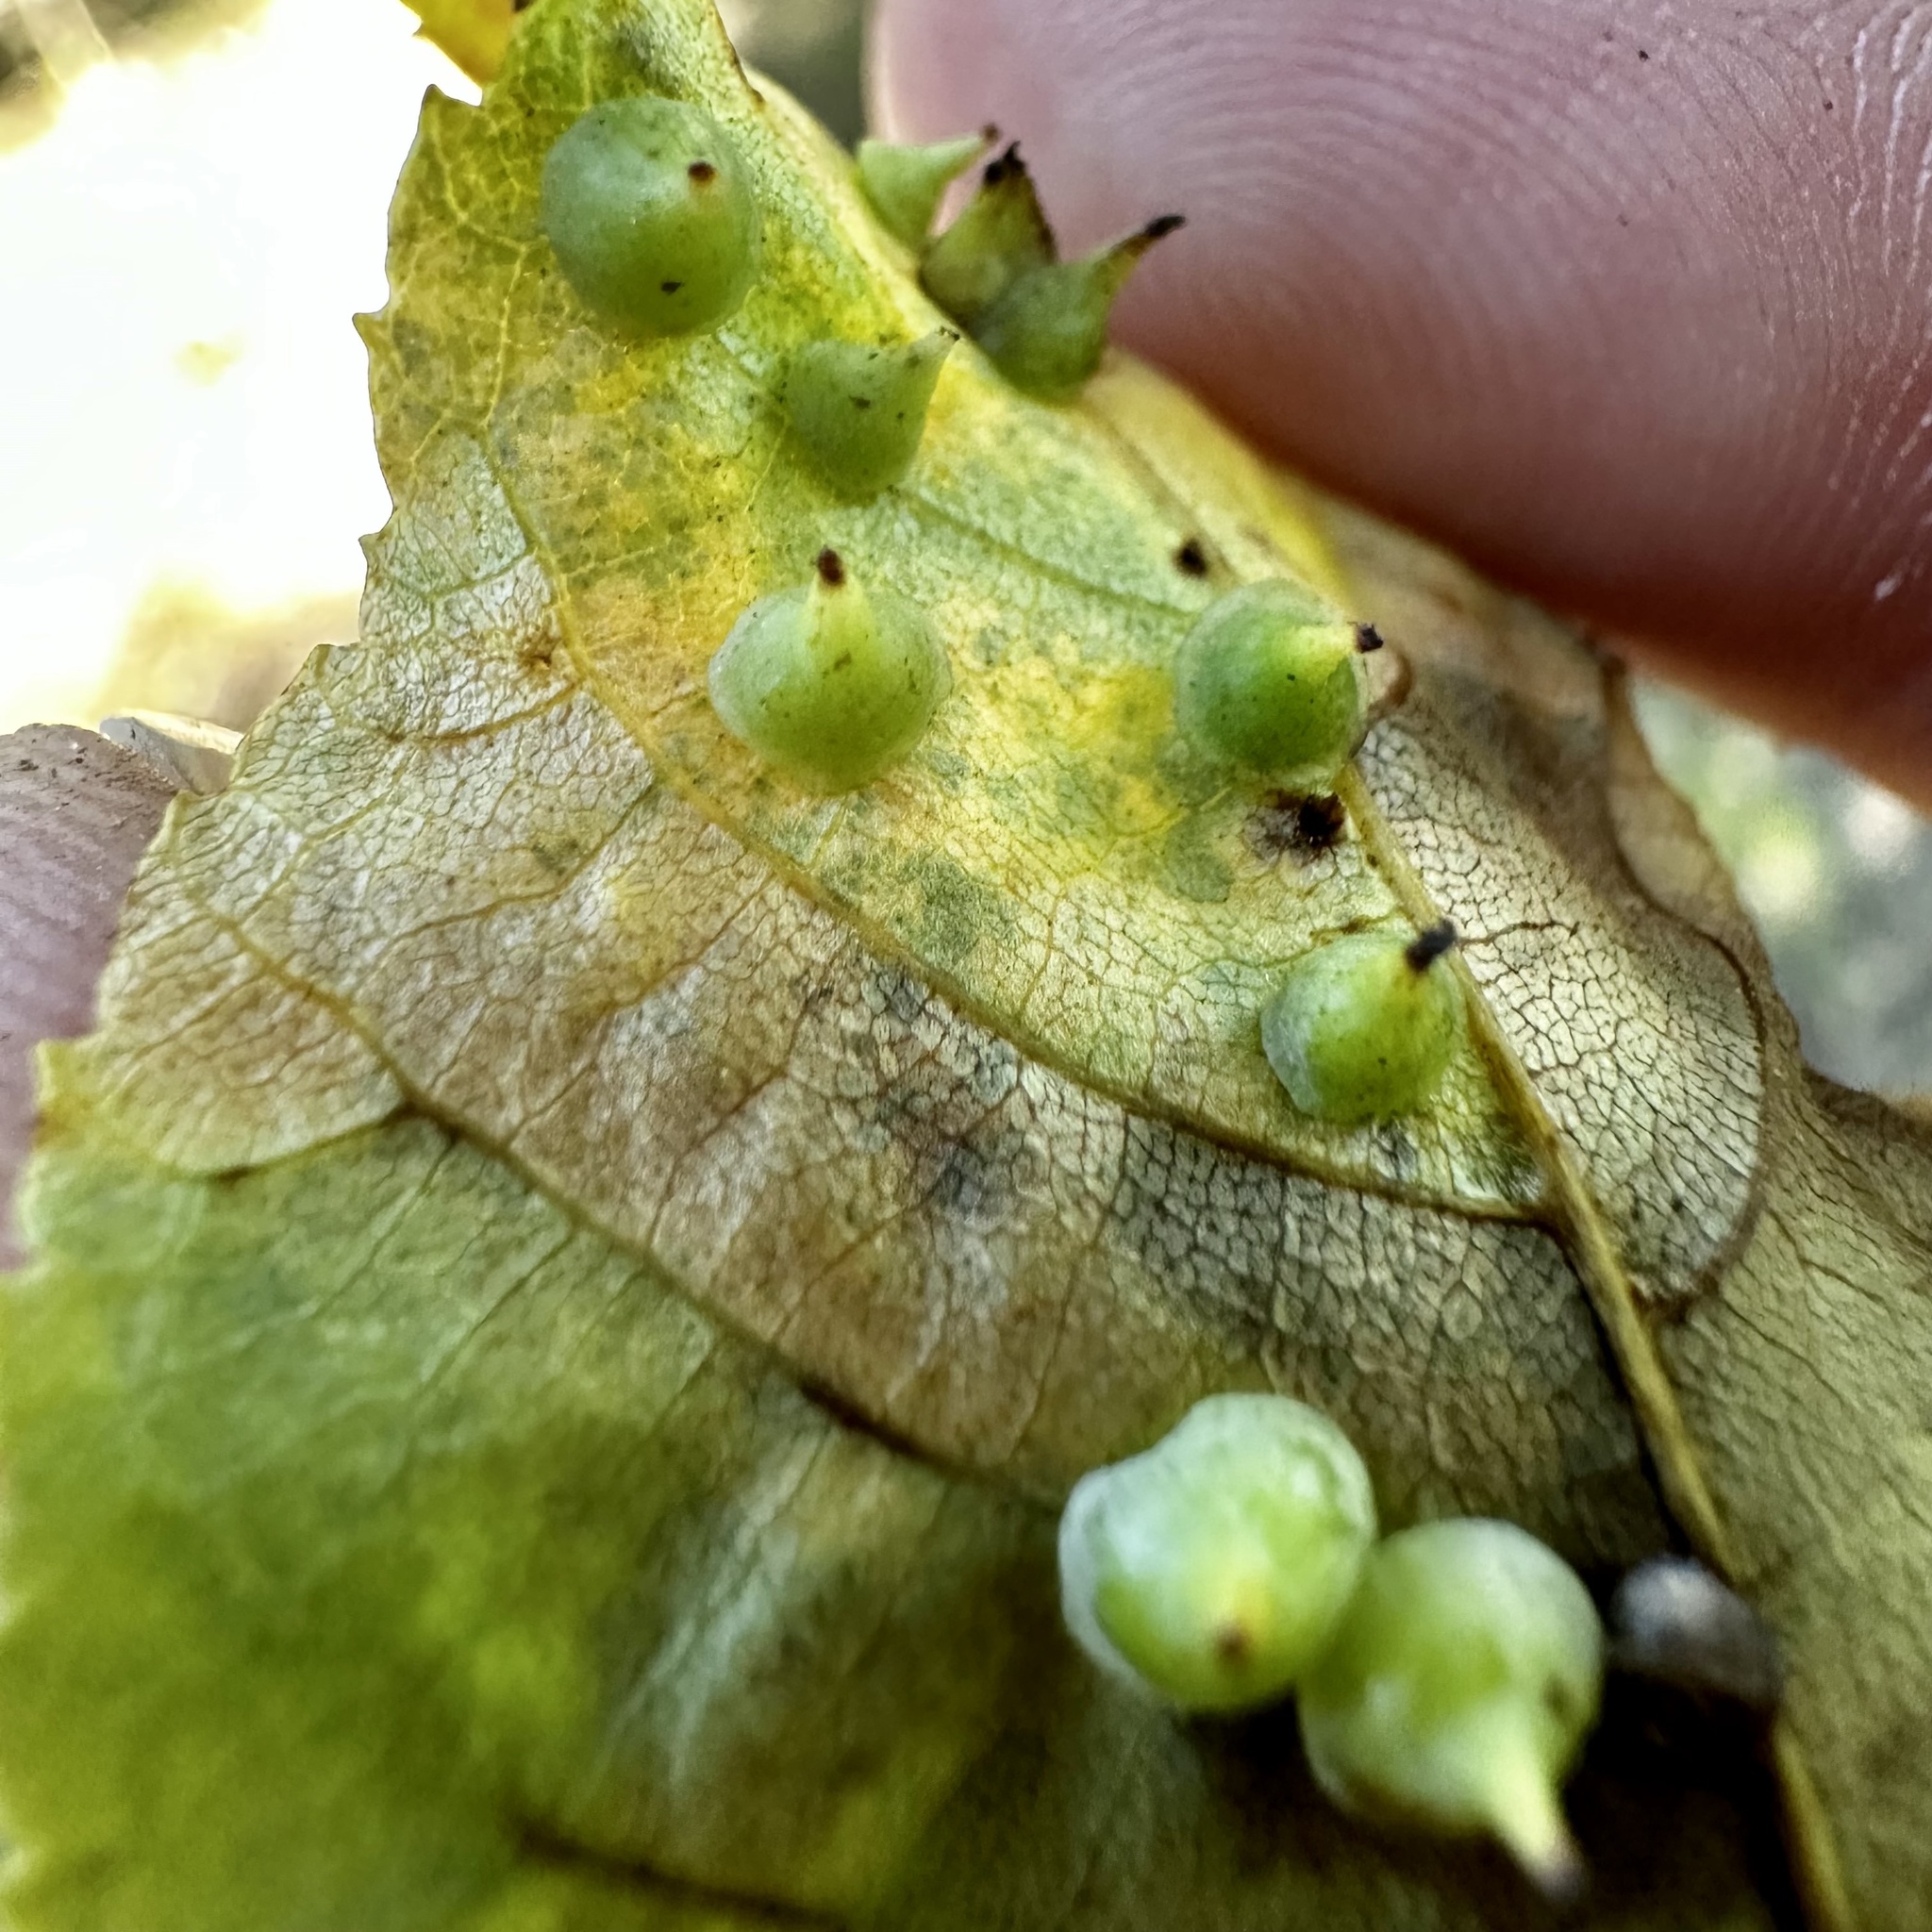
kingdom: Animalia
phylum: Arthropoda
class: Insecta
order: Diptera
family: Cecidomyiidae
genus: Caryomyia
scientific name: Caryomyia sanguinolenta
